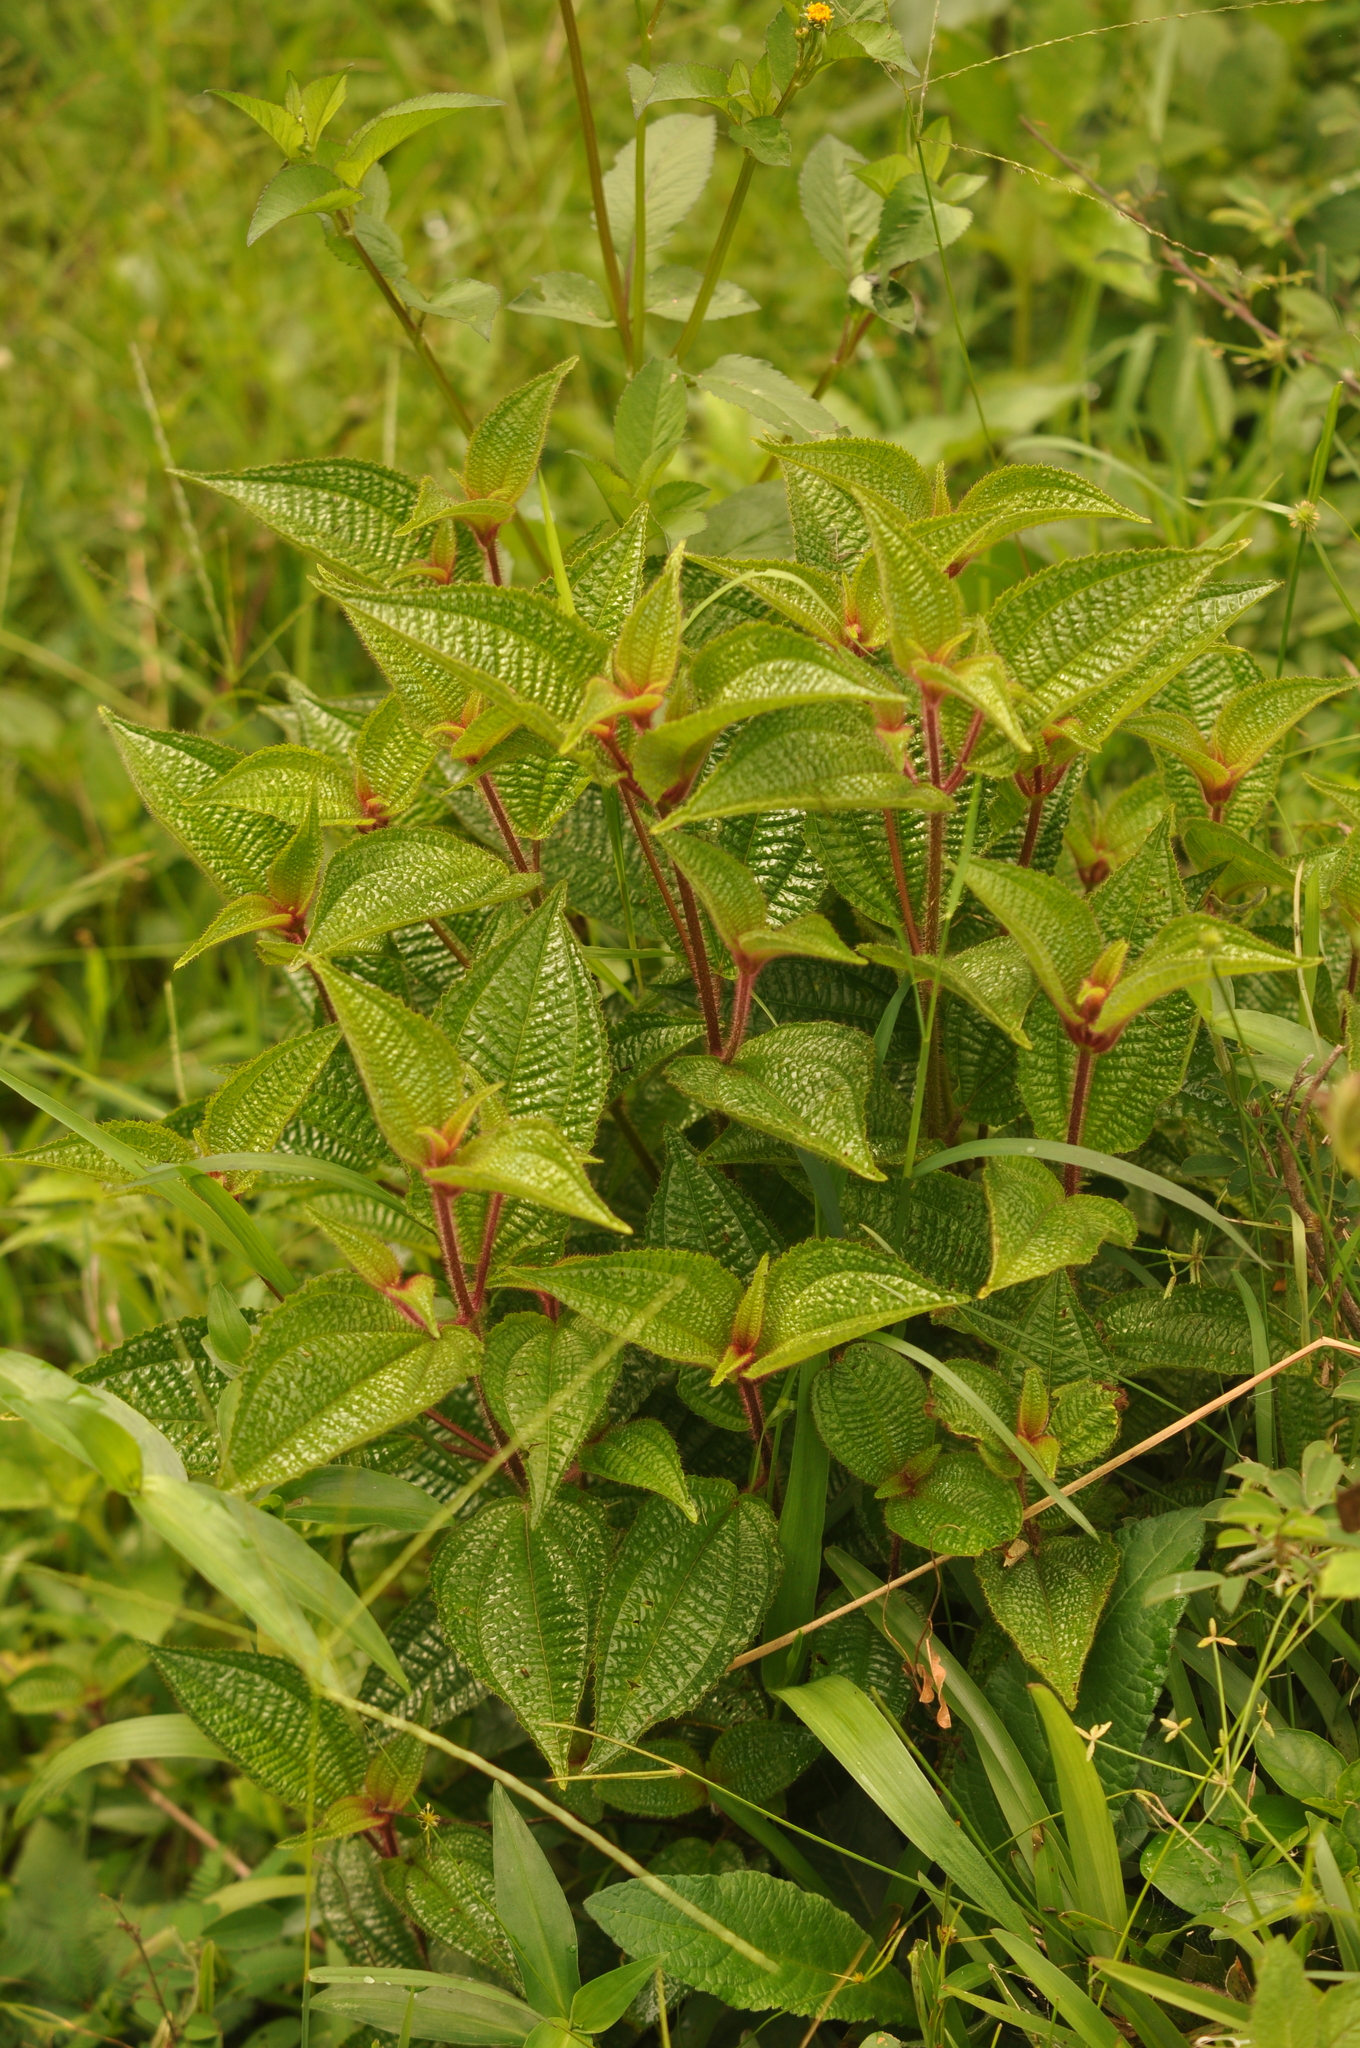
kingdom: Plantae
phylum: Tracheophyta
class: Magnoliopsida
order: Myrtales
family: Melastomataceae
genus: Miconia
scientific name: Miconia crenata
